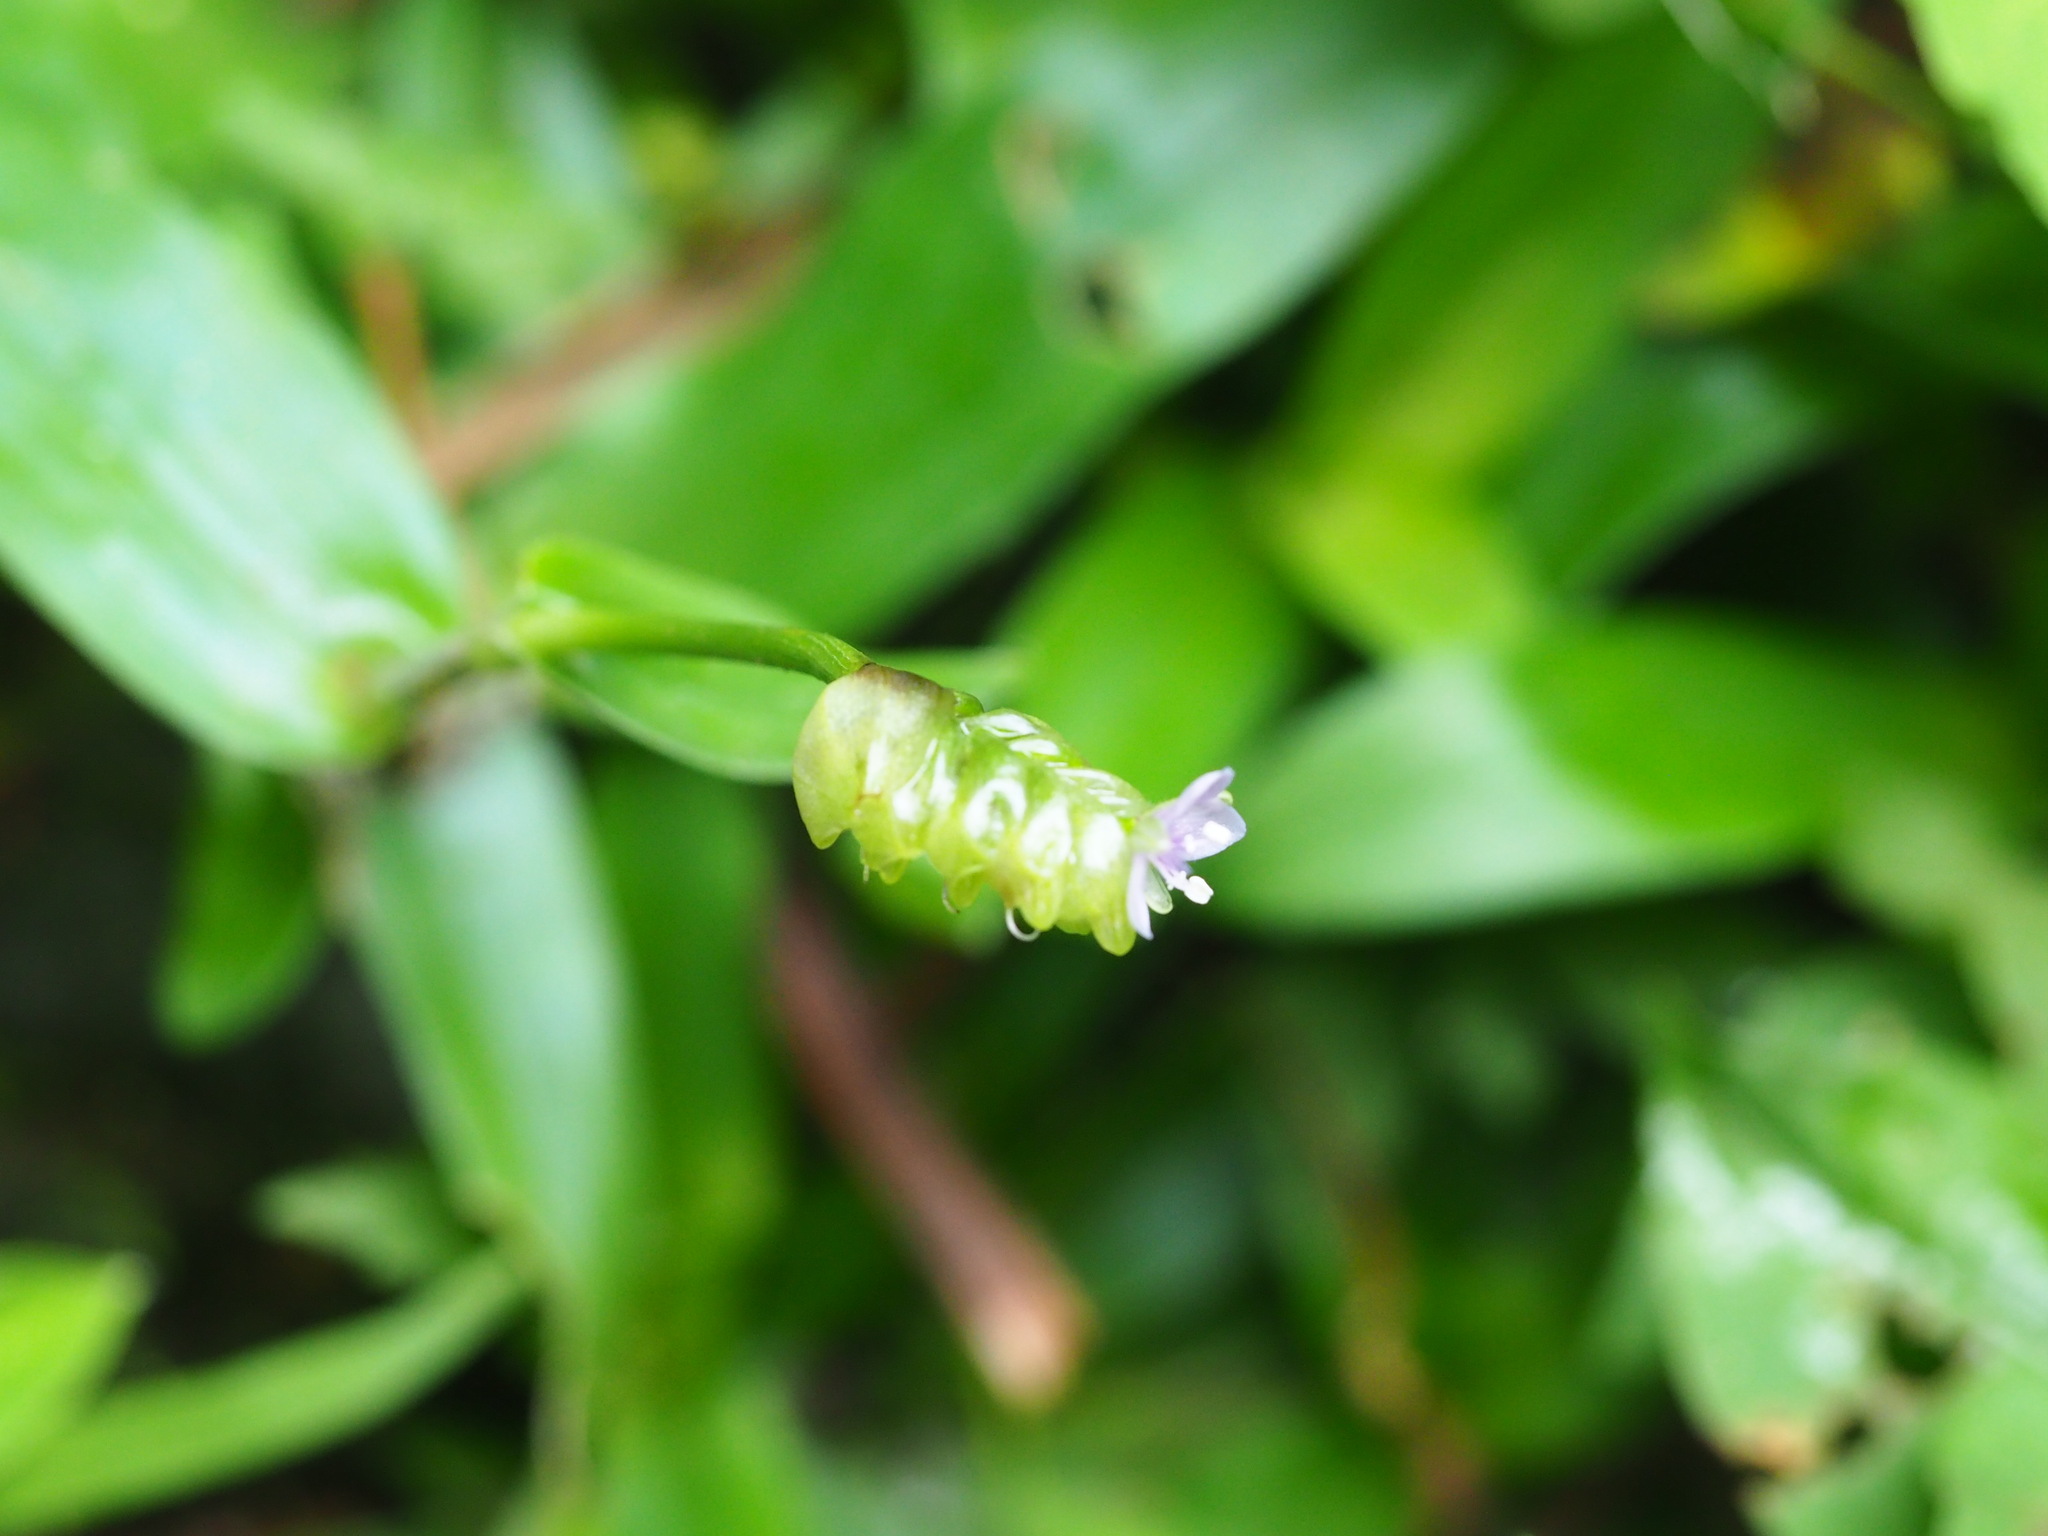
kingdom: Plantae
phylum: Tracheophyta
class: Liliopsida
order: Commelinales
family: Commelinaceae
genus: Murdannia
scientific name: Murdannia bracteata
